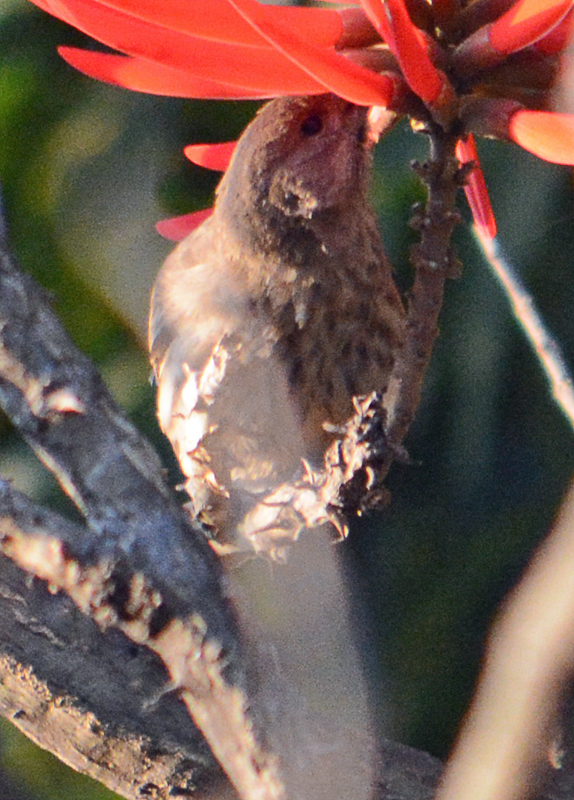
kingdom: Animalia
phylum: Chordata
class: Aves
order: Passeriformes
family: Fringillidae
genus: Haemorhous
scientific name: Haemorhous mexicanus
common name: House finch
